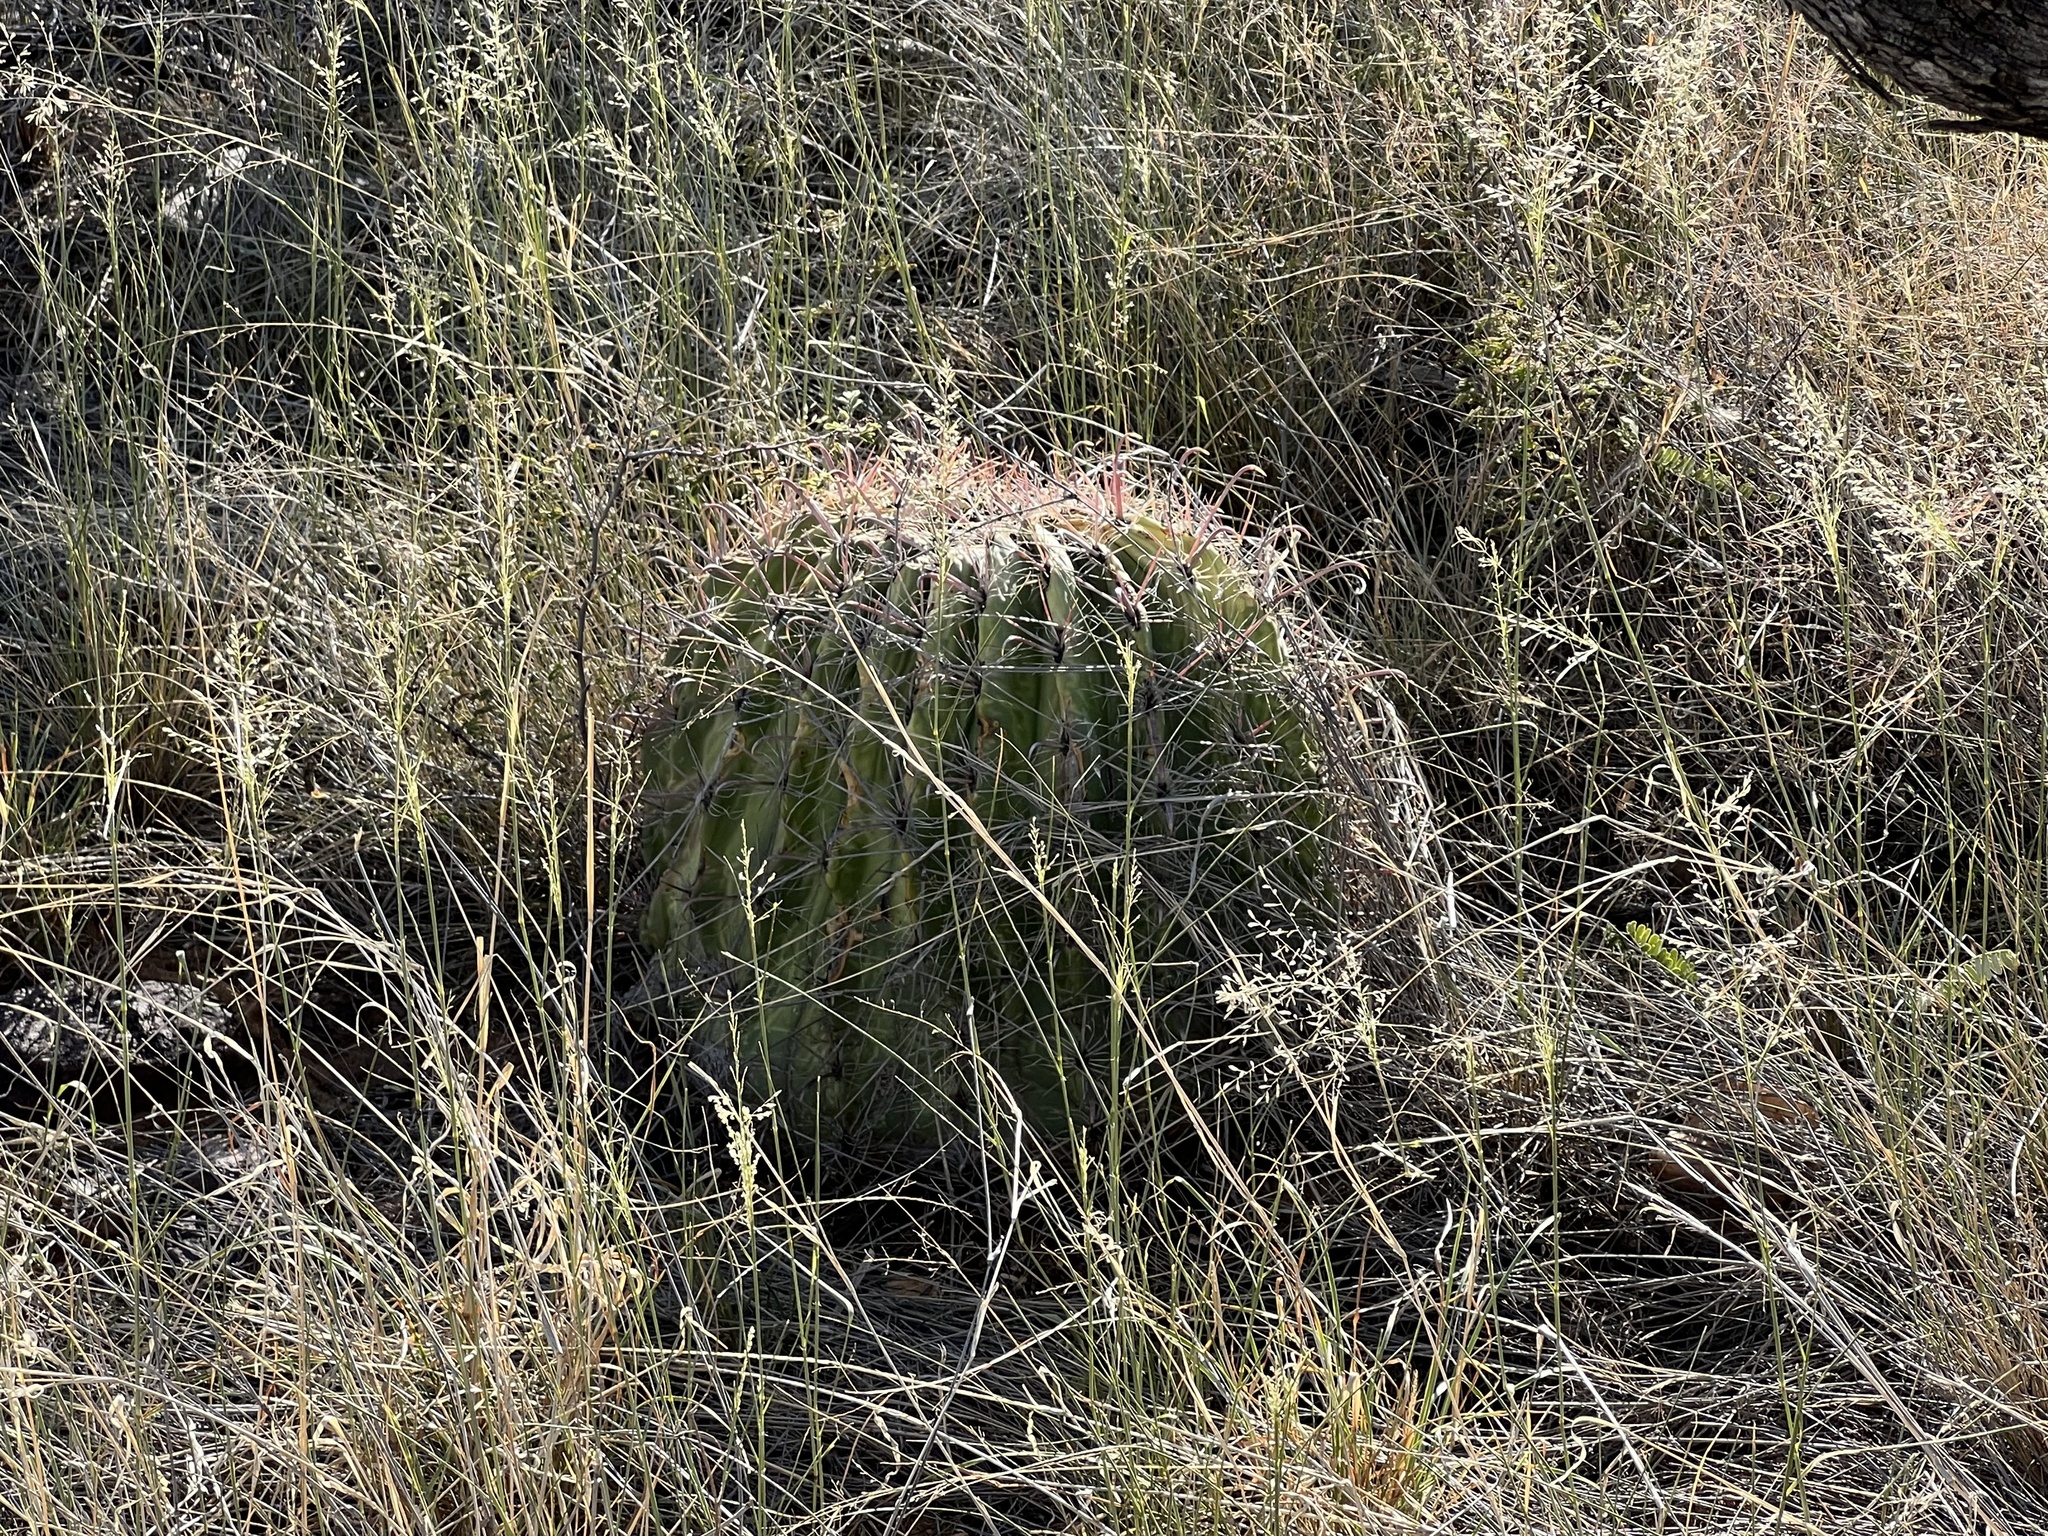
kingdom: Plantae
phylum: Tracheophyta
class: Magnoliopsida
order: Caryophyllales
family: Cactaceae
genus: Ferocactus
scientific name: Ferocactus wislizeni
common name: Candy barrel cactus
